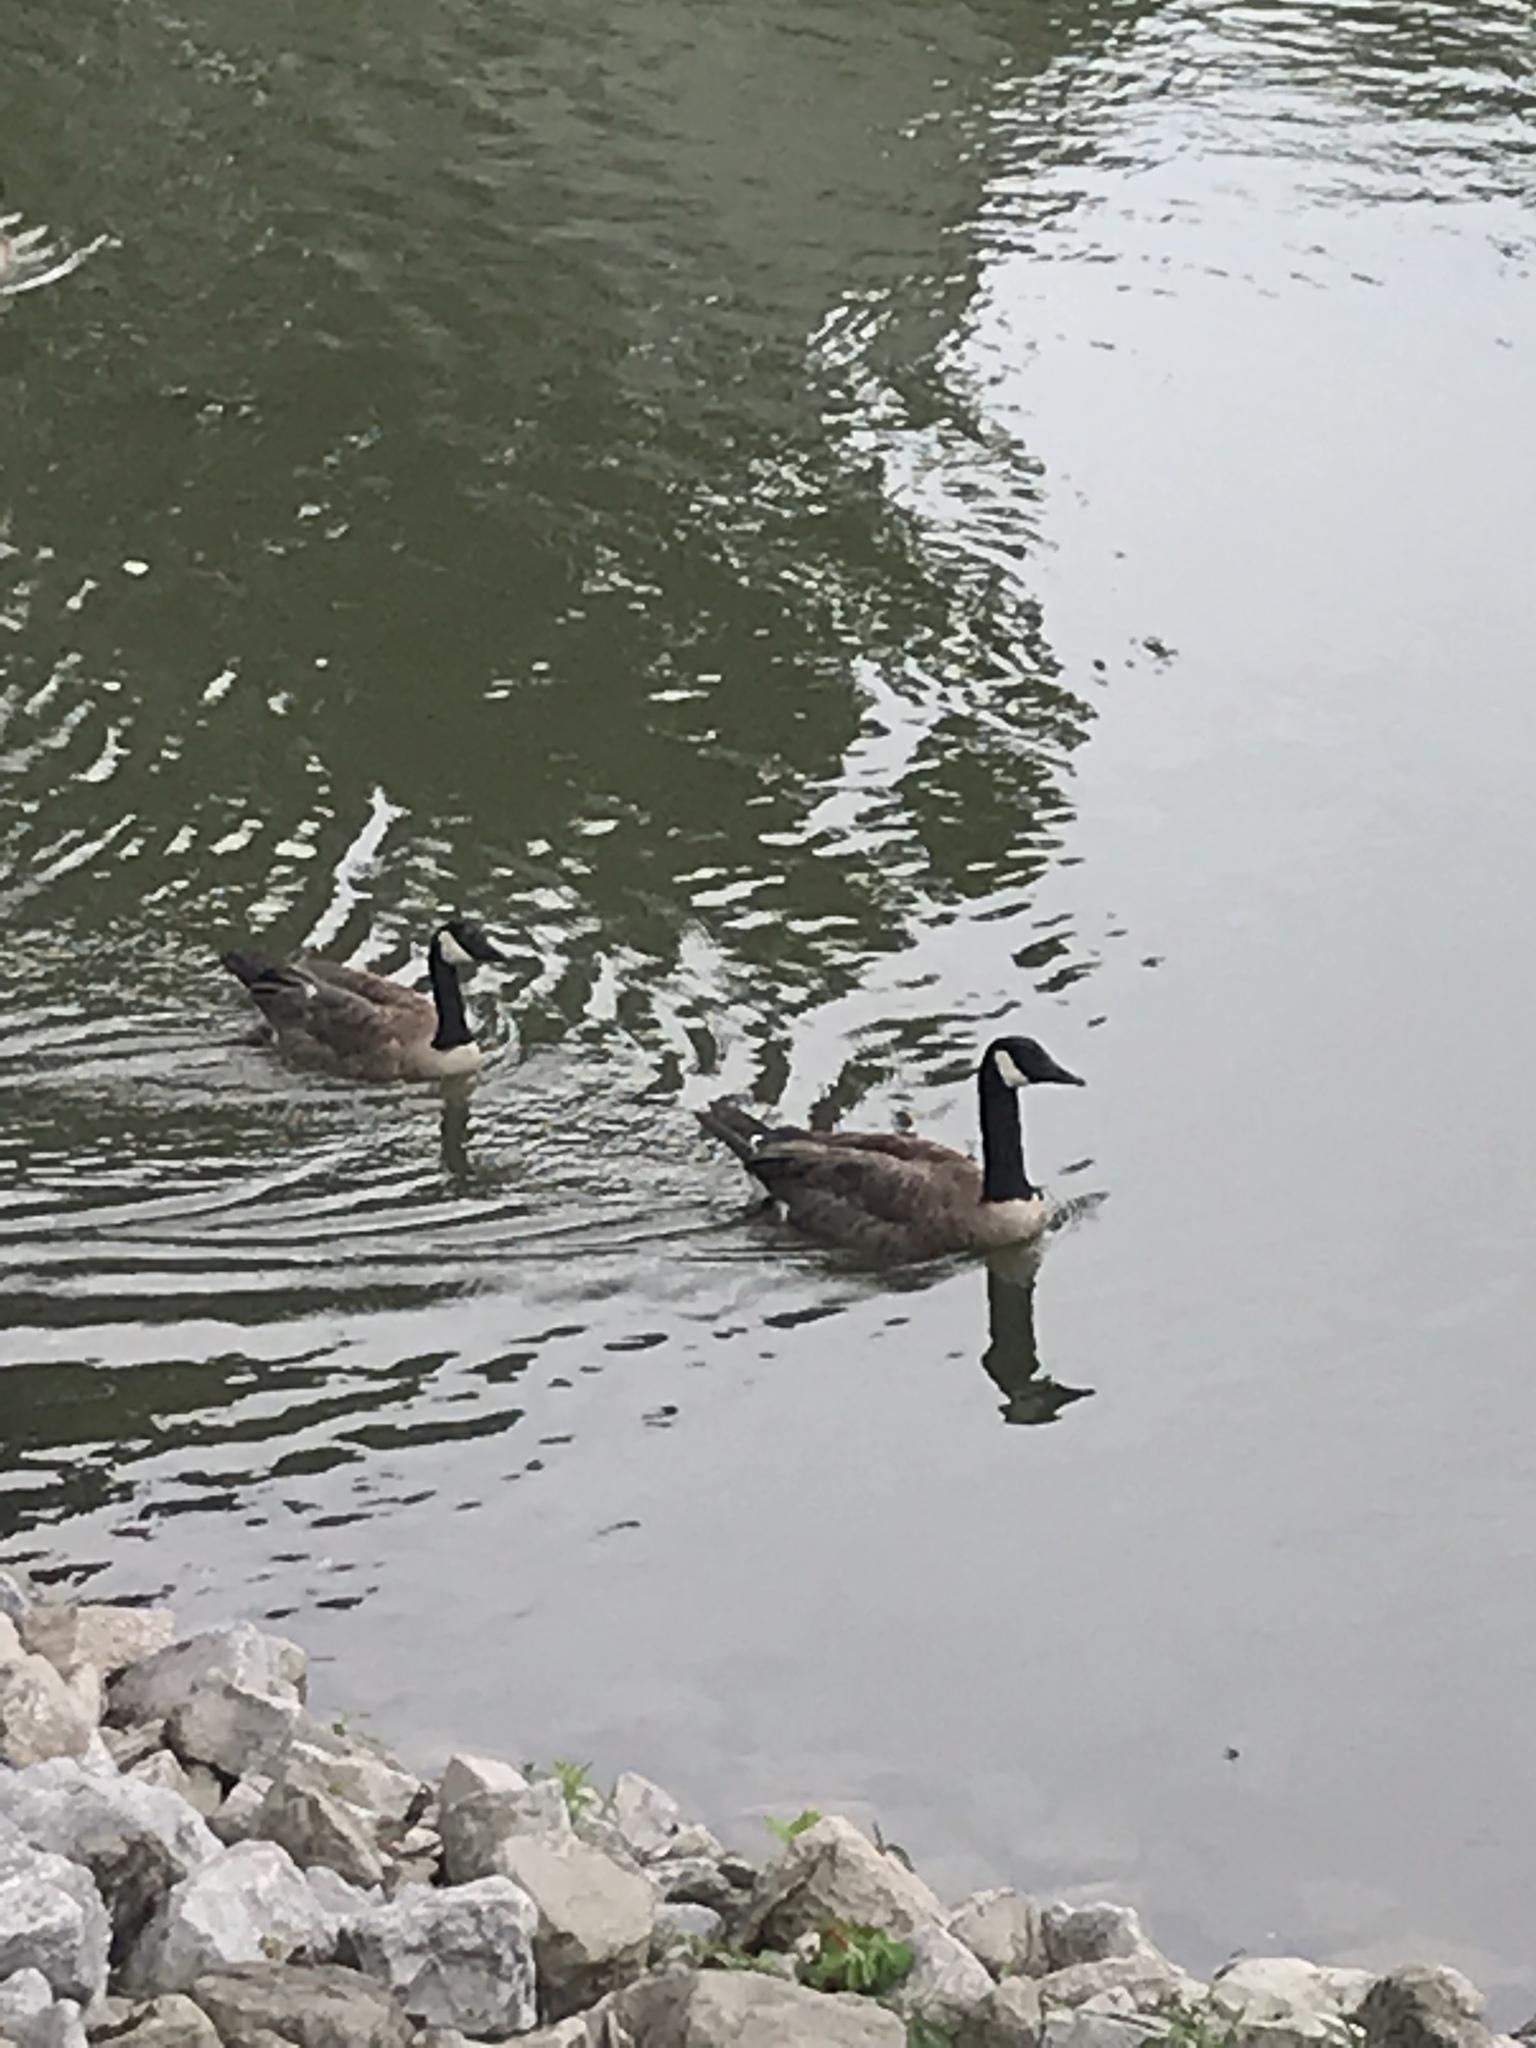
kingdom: Animalia
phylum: Chordata
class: Aves
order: Anseriformes
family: Anatidae
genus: Branta
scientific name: Branta canadensis
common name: Canada goose
